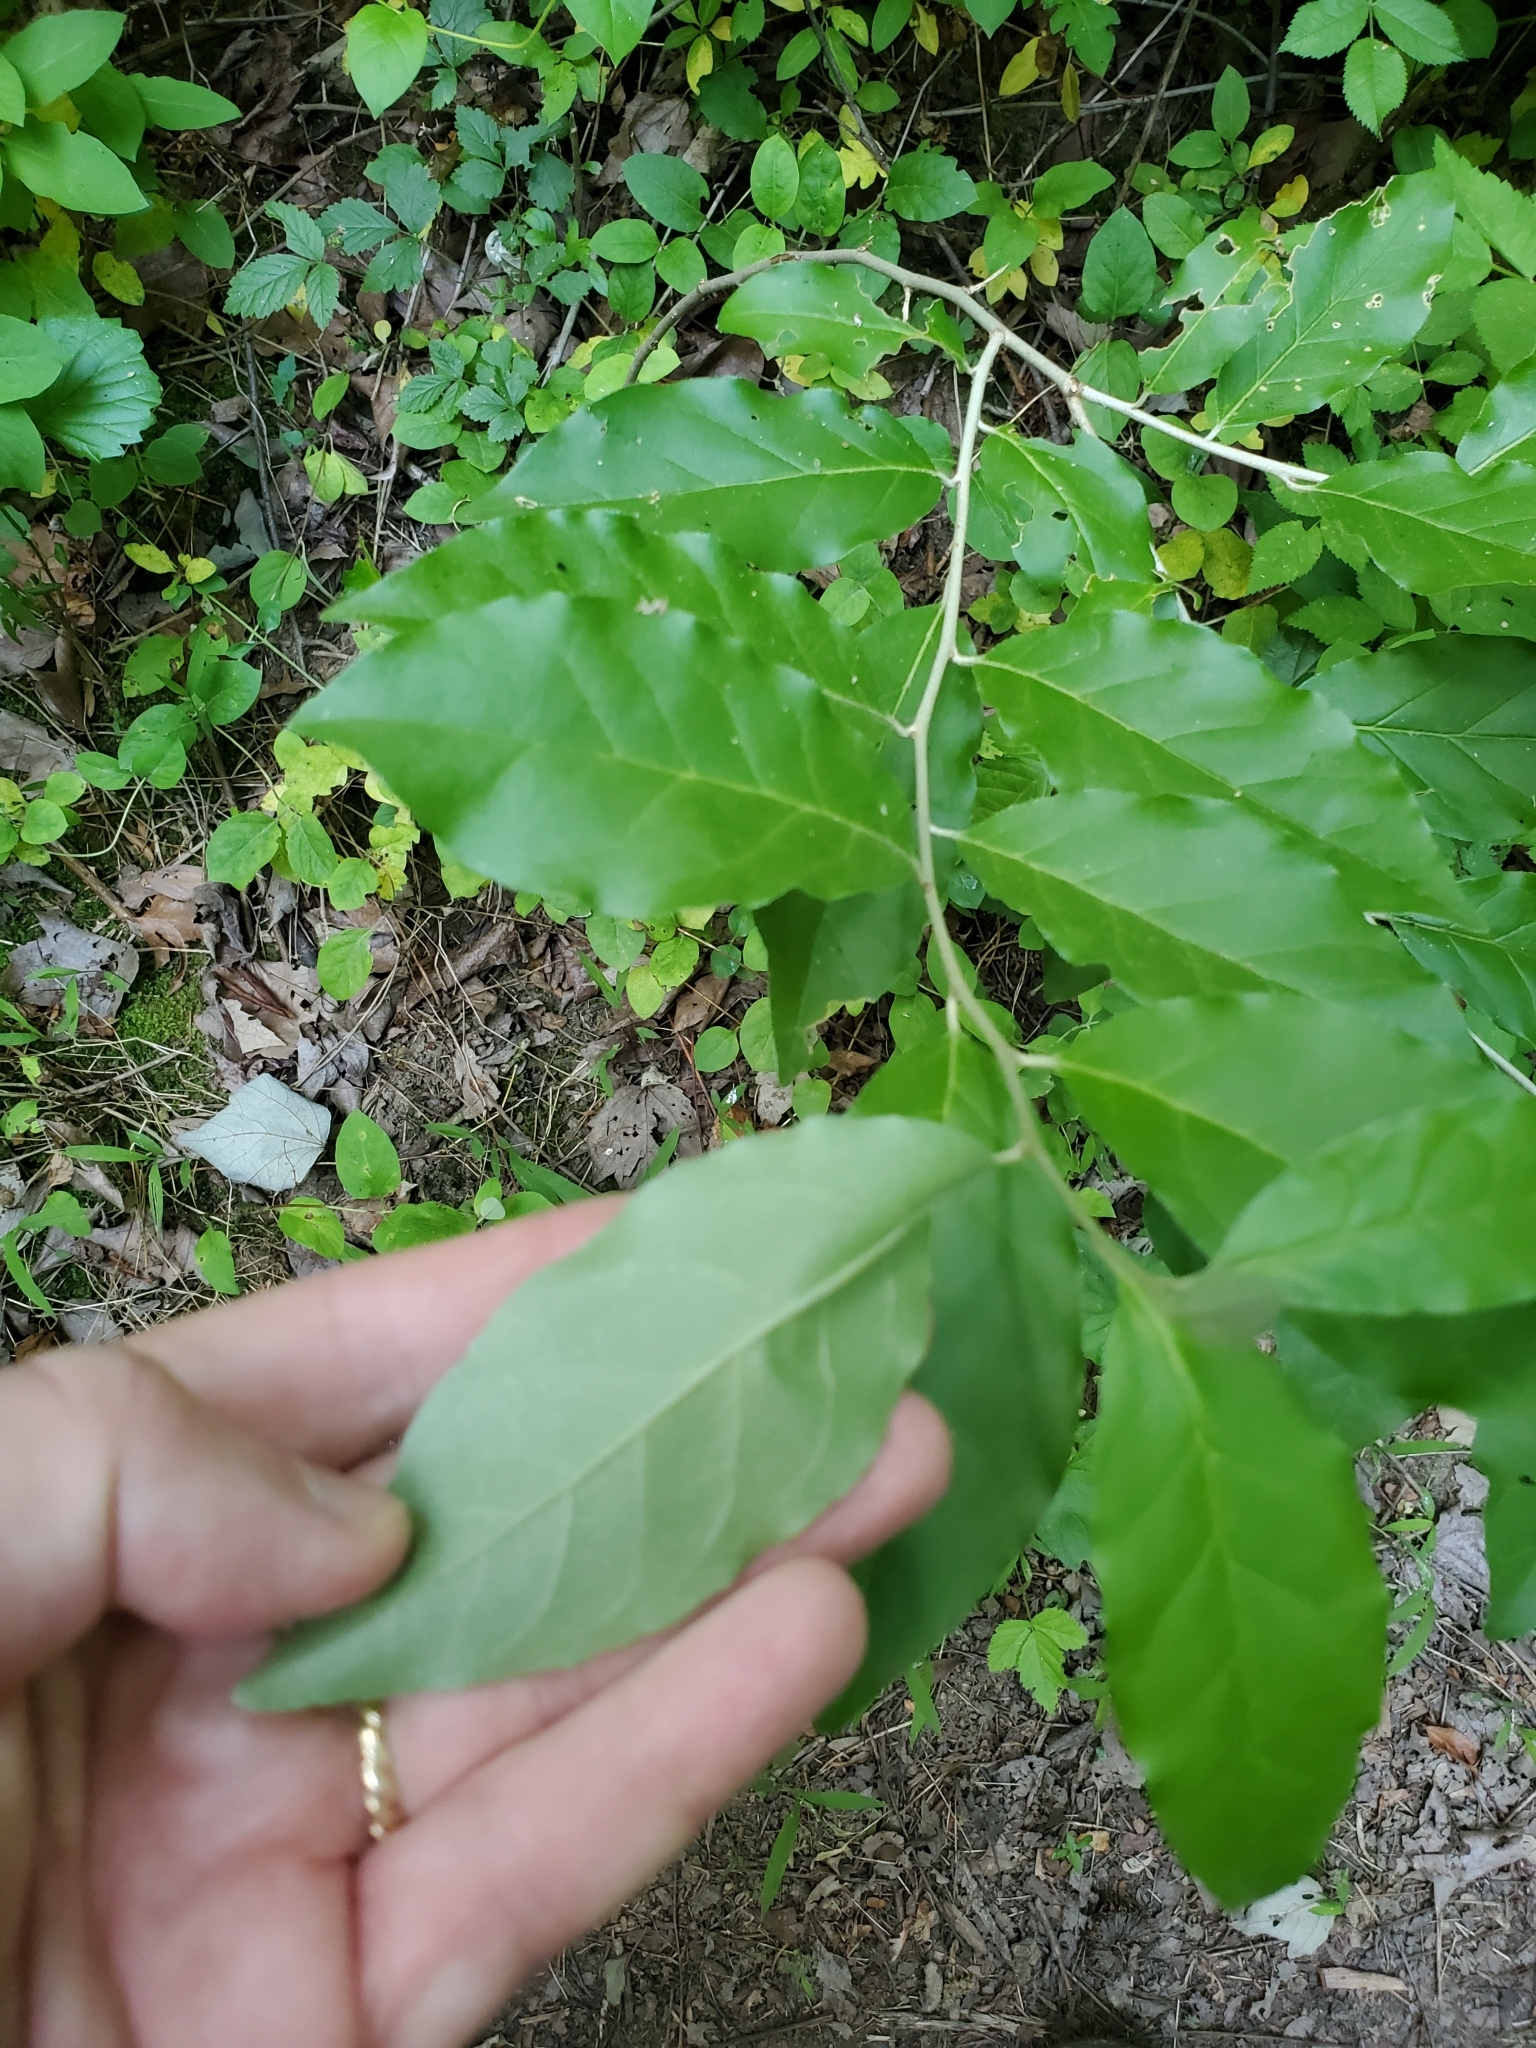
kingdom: Plantae
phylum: Tracheophyta
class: Magnoliopsida
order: Rosales
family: Elaeagnaceae
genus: Elaeagnus
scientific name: Elaeagnus umbellata
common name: Autumn olive
